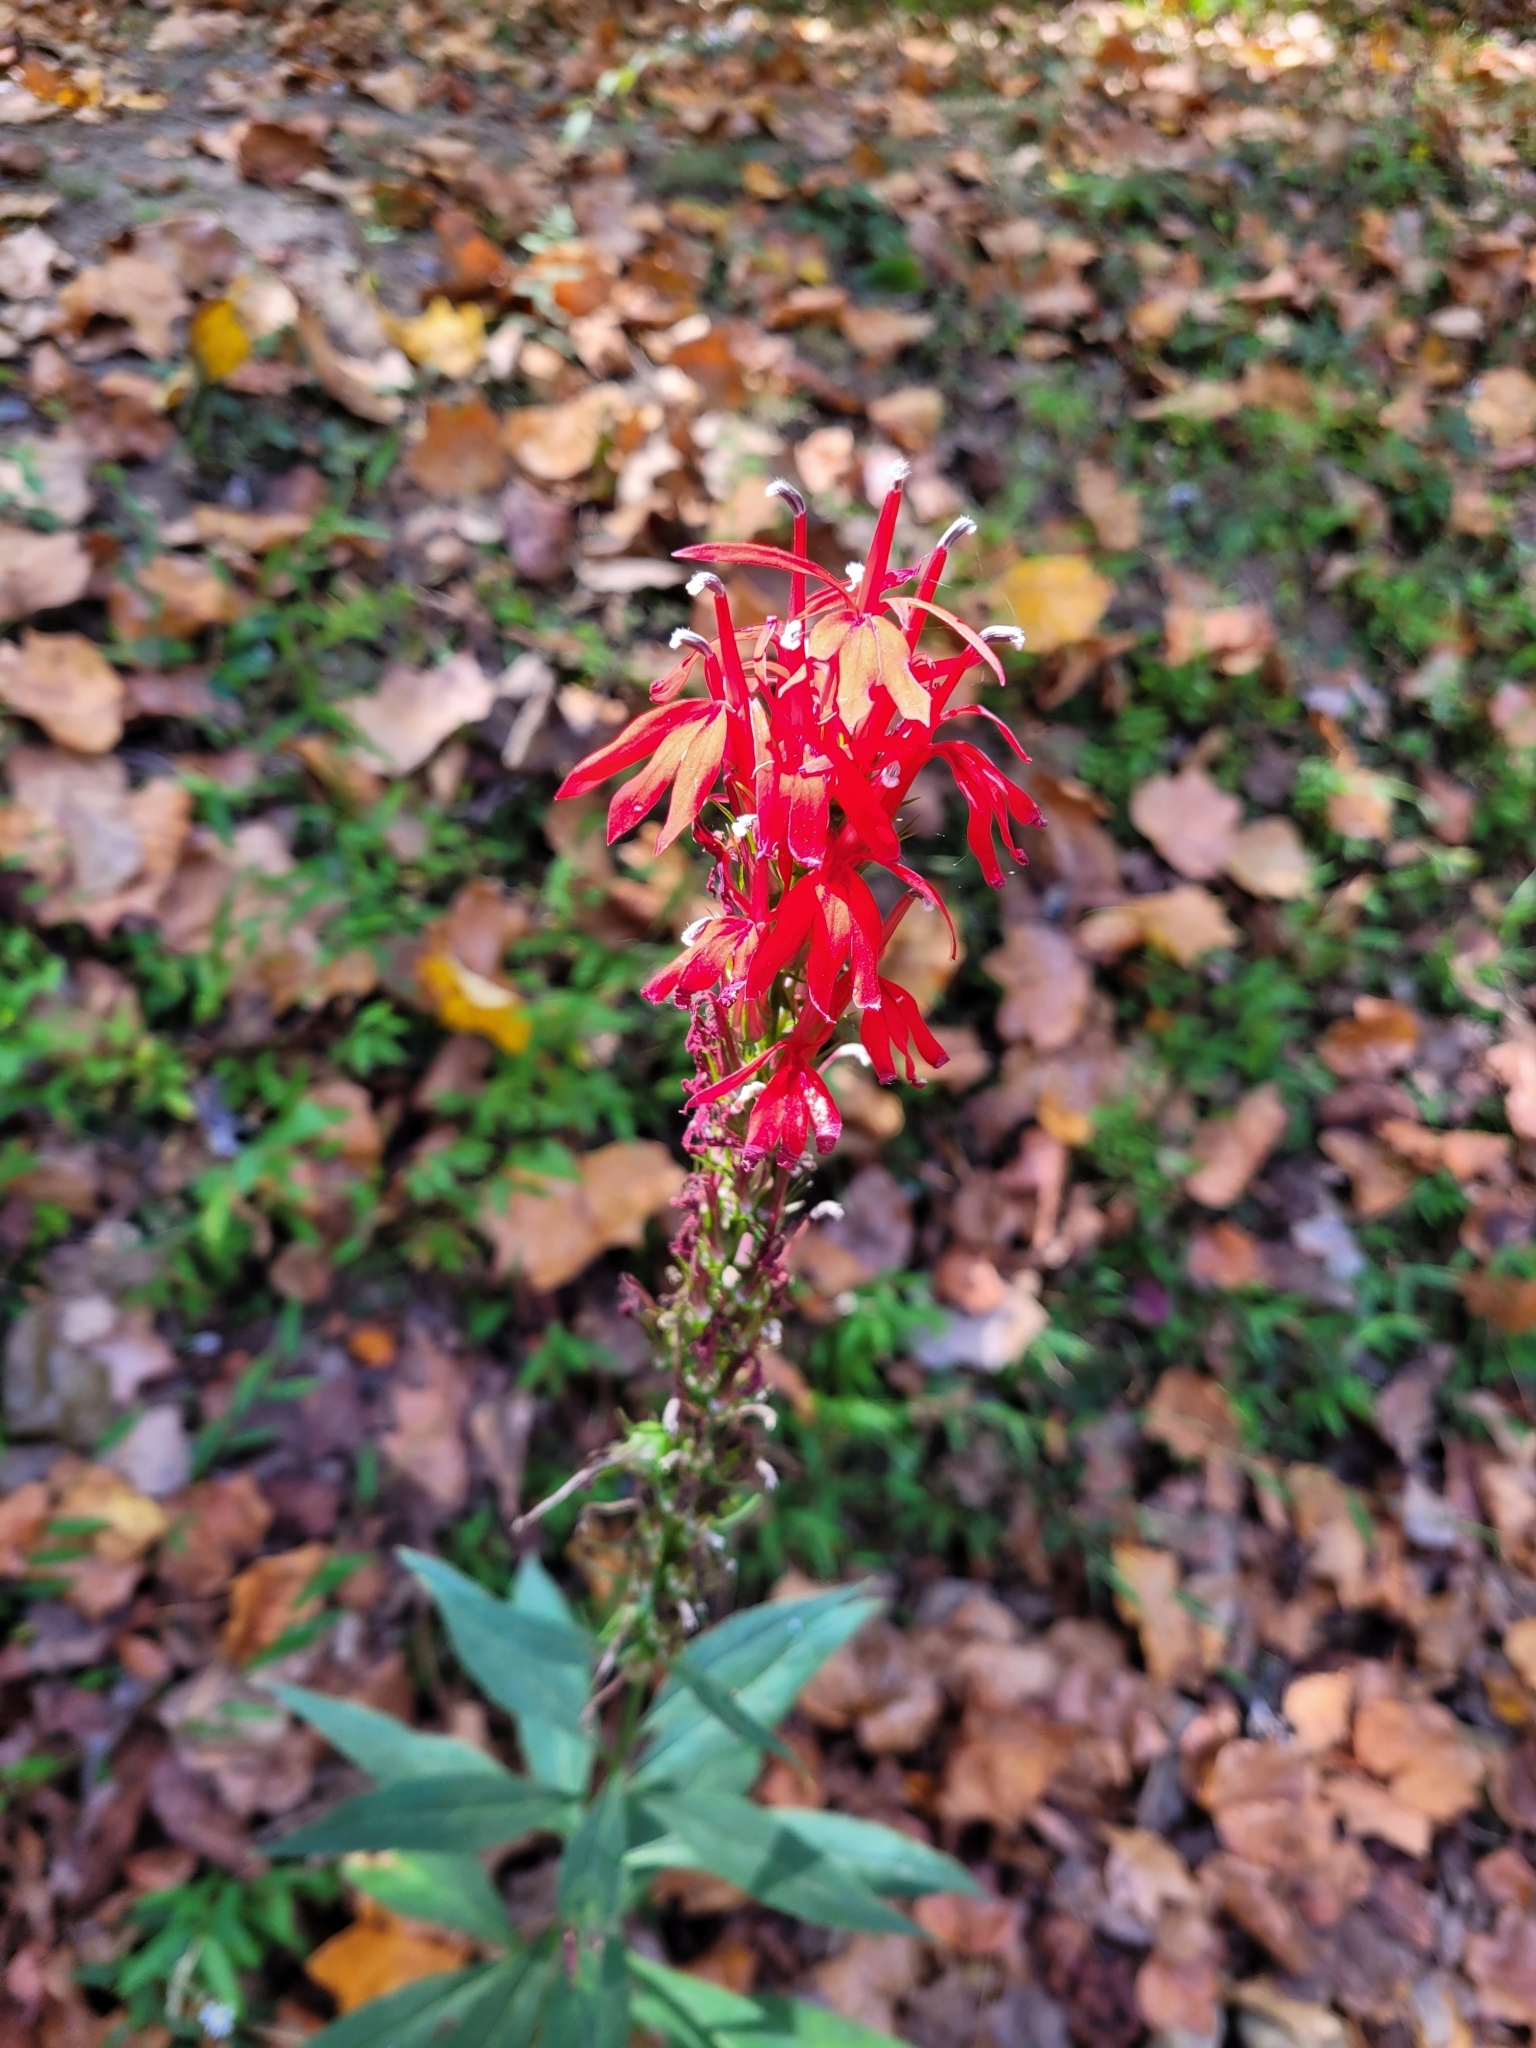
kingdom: Plantae
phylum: Tracheophyta
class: Magnoliopsida
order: Asterales
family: Campanulaceae
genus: Lobelia
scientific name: Lobelia cardinalis
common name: Cardinal flower
